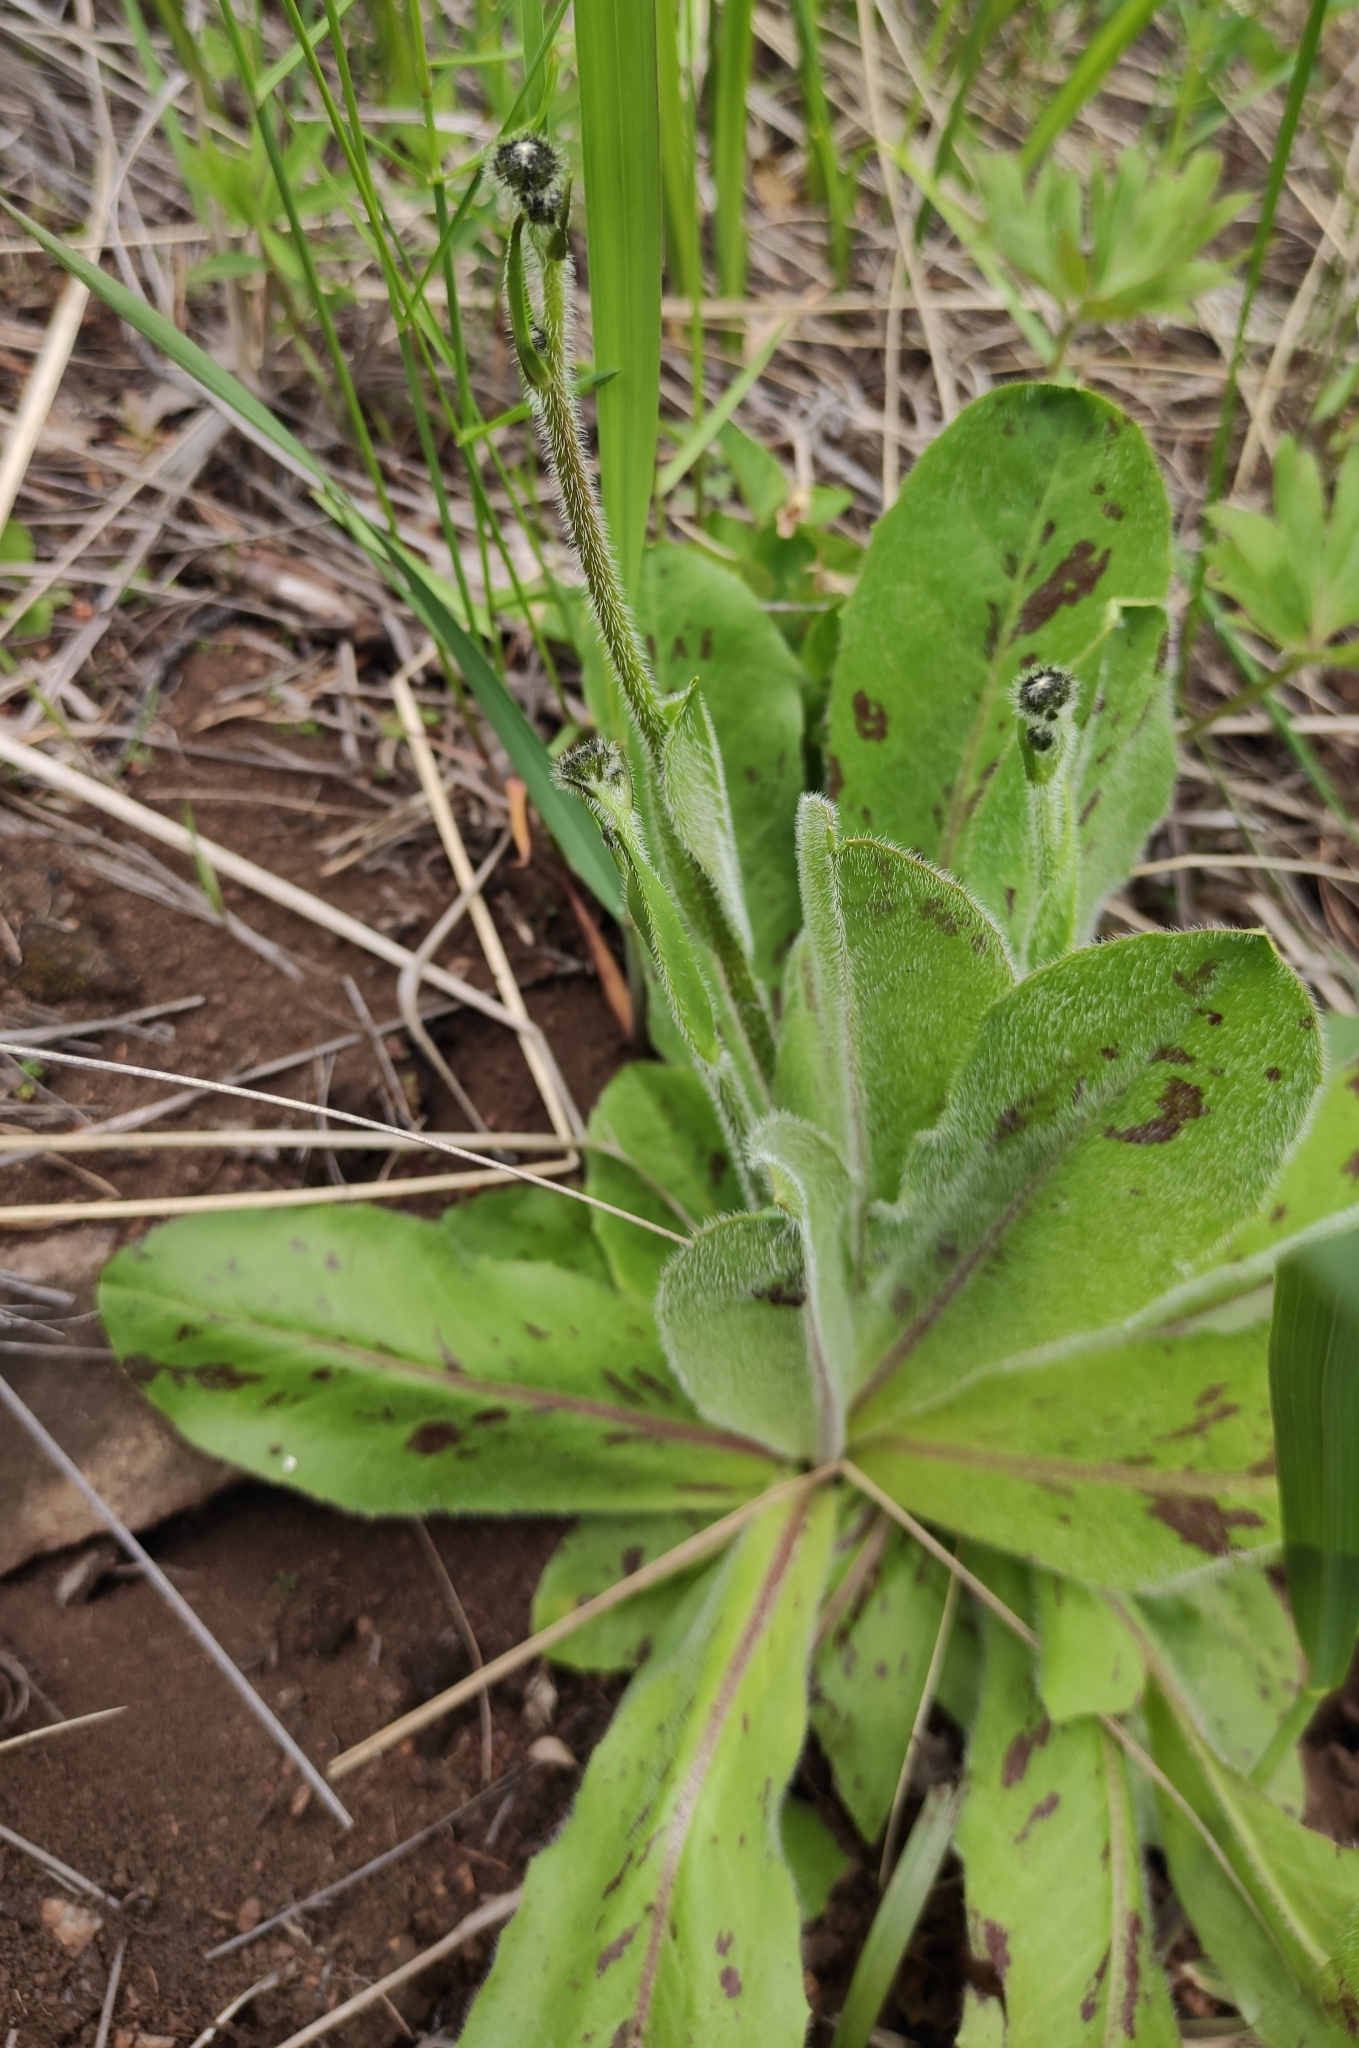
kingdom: Plantae
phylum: Tracheophyta
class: Magnoliopsida
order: Asterales
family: Asteraceae
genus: Trommsdorffia
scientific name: Trommsdorffia maculata
